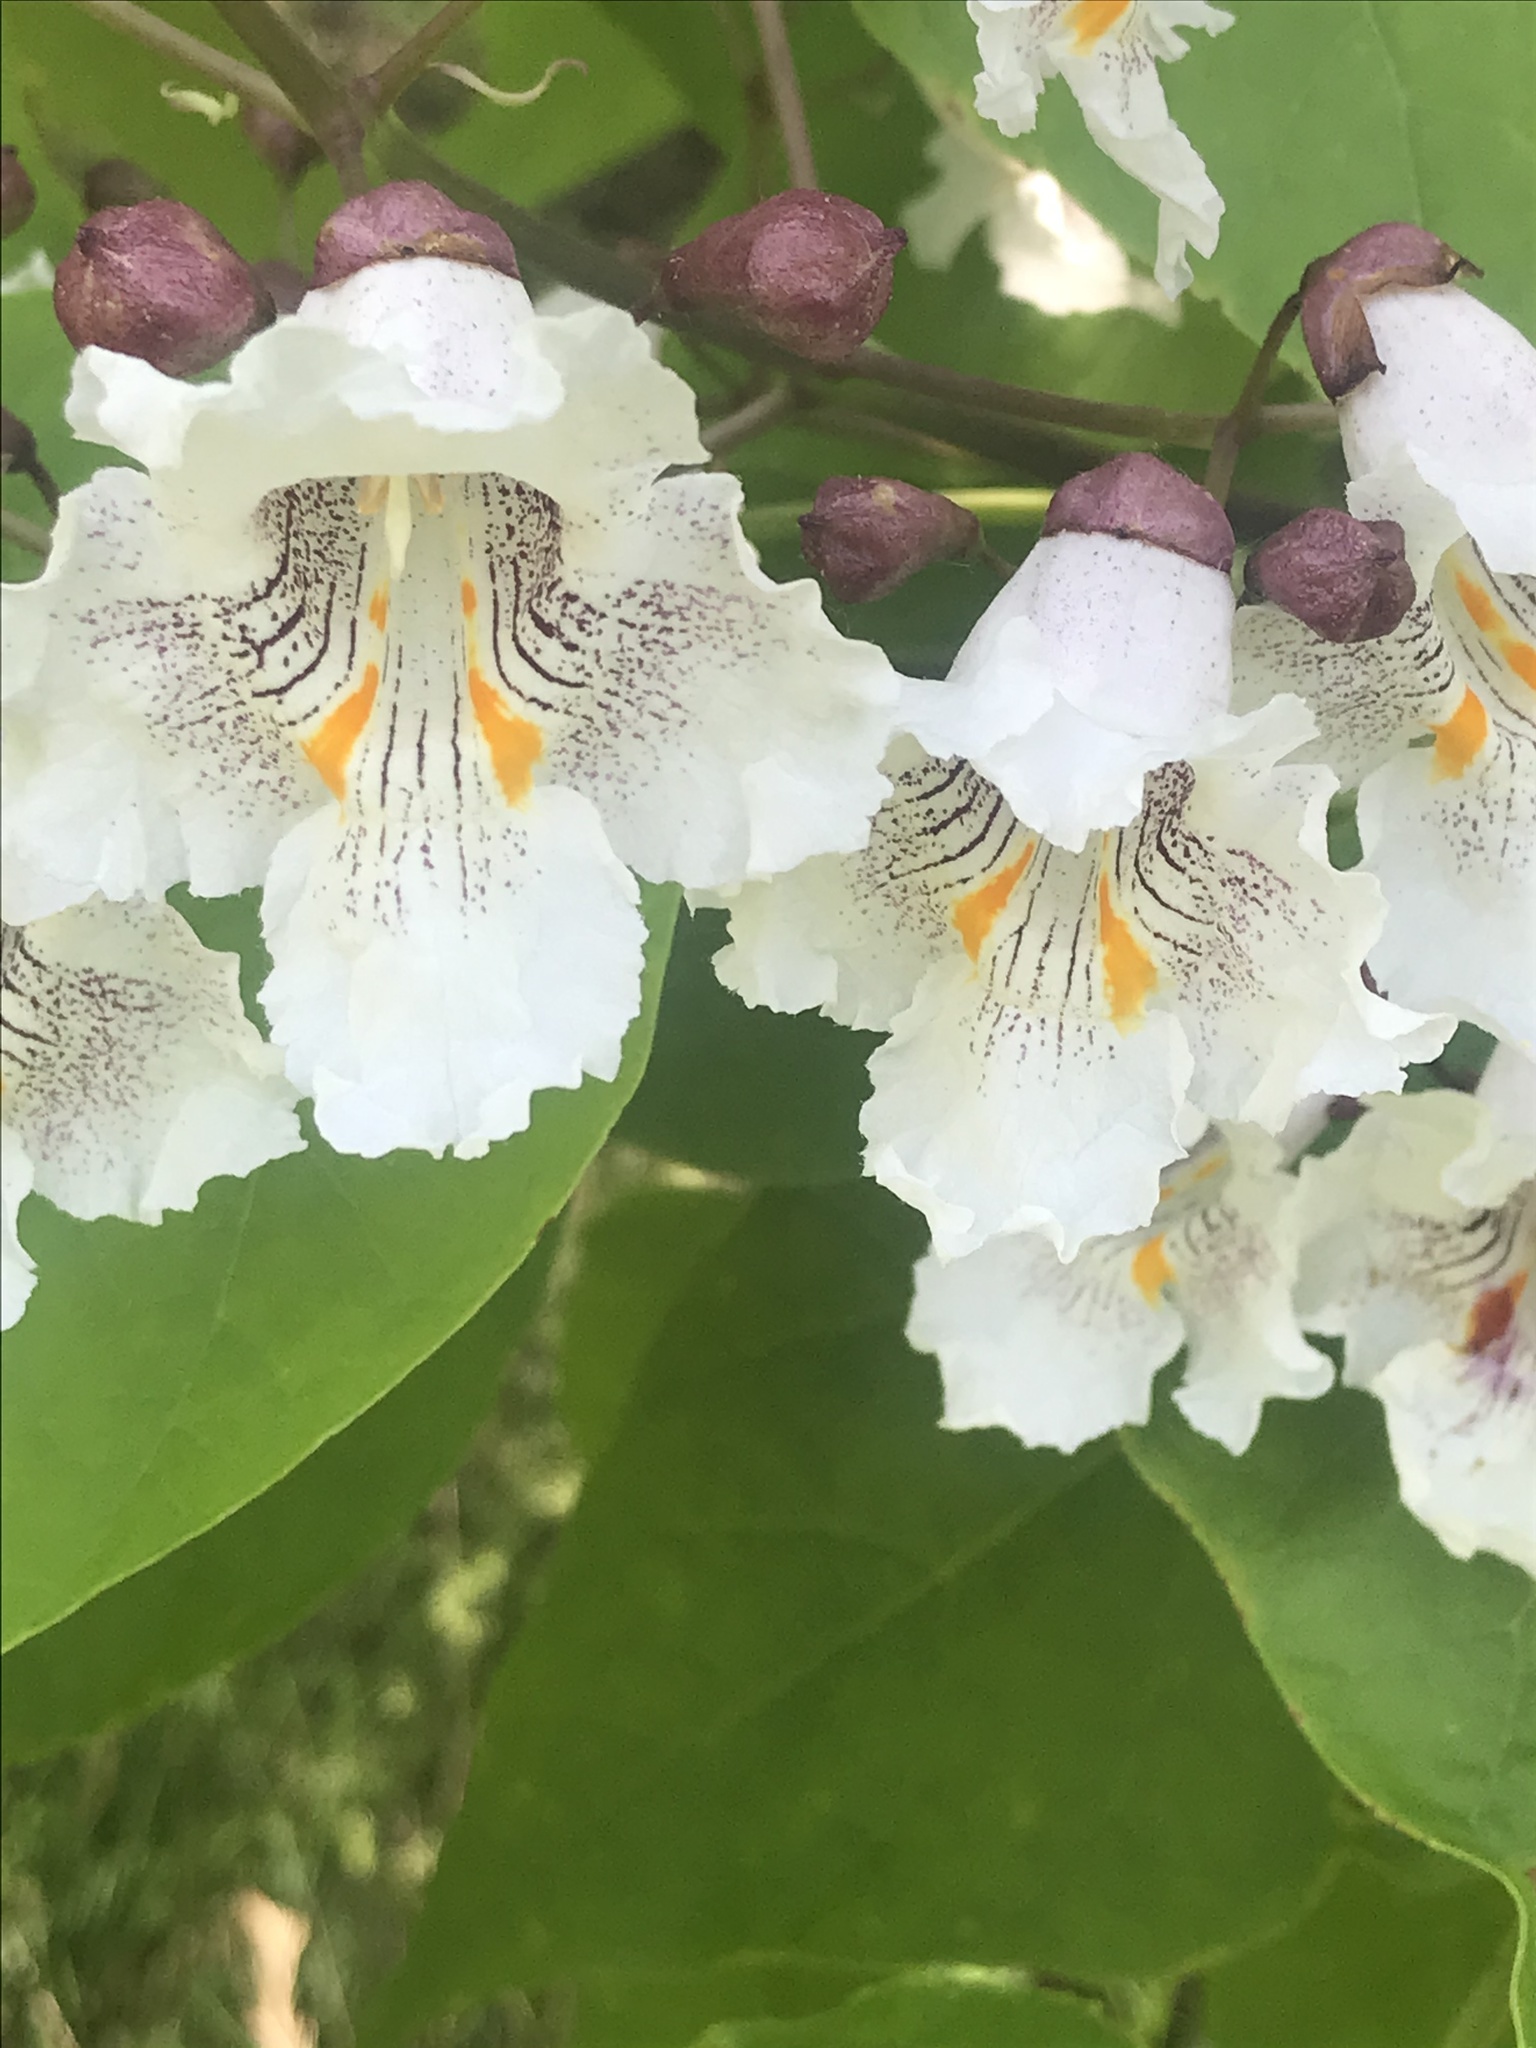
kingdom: Plantae
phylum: Tracheophyta
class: Magnoliopsida
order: Lamiales
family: Bignoniaceae
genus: Catalpa
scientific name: Catalpa speciosa
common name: Northern catalpa
